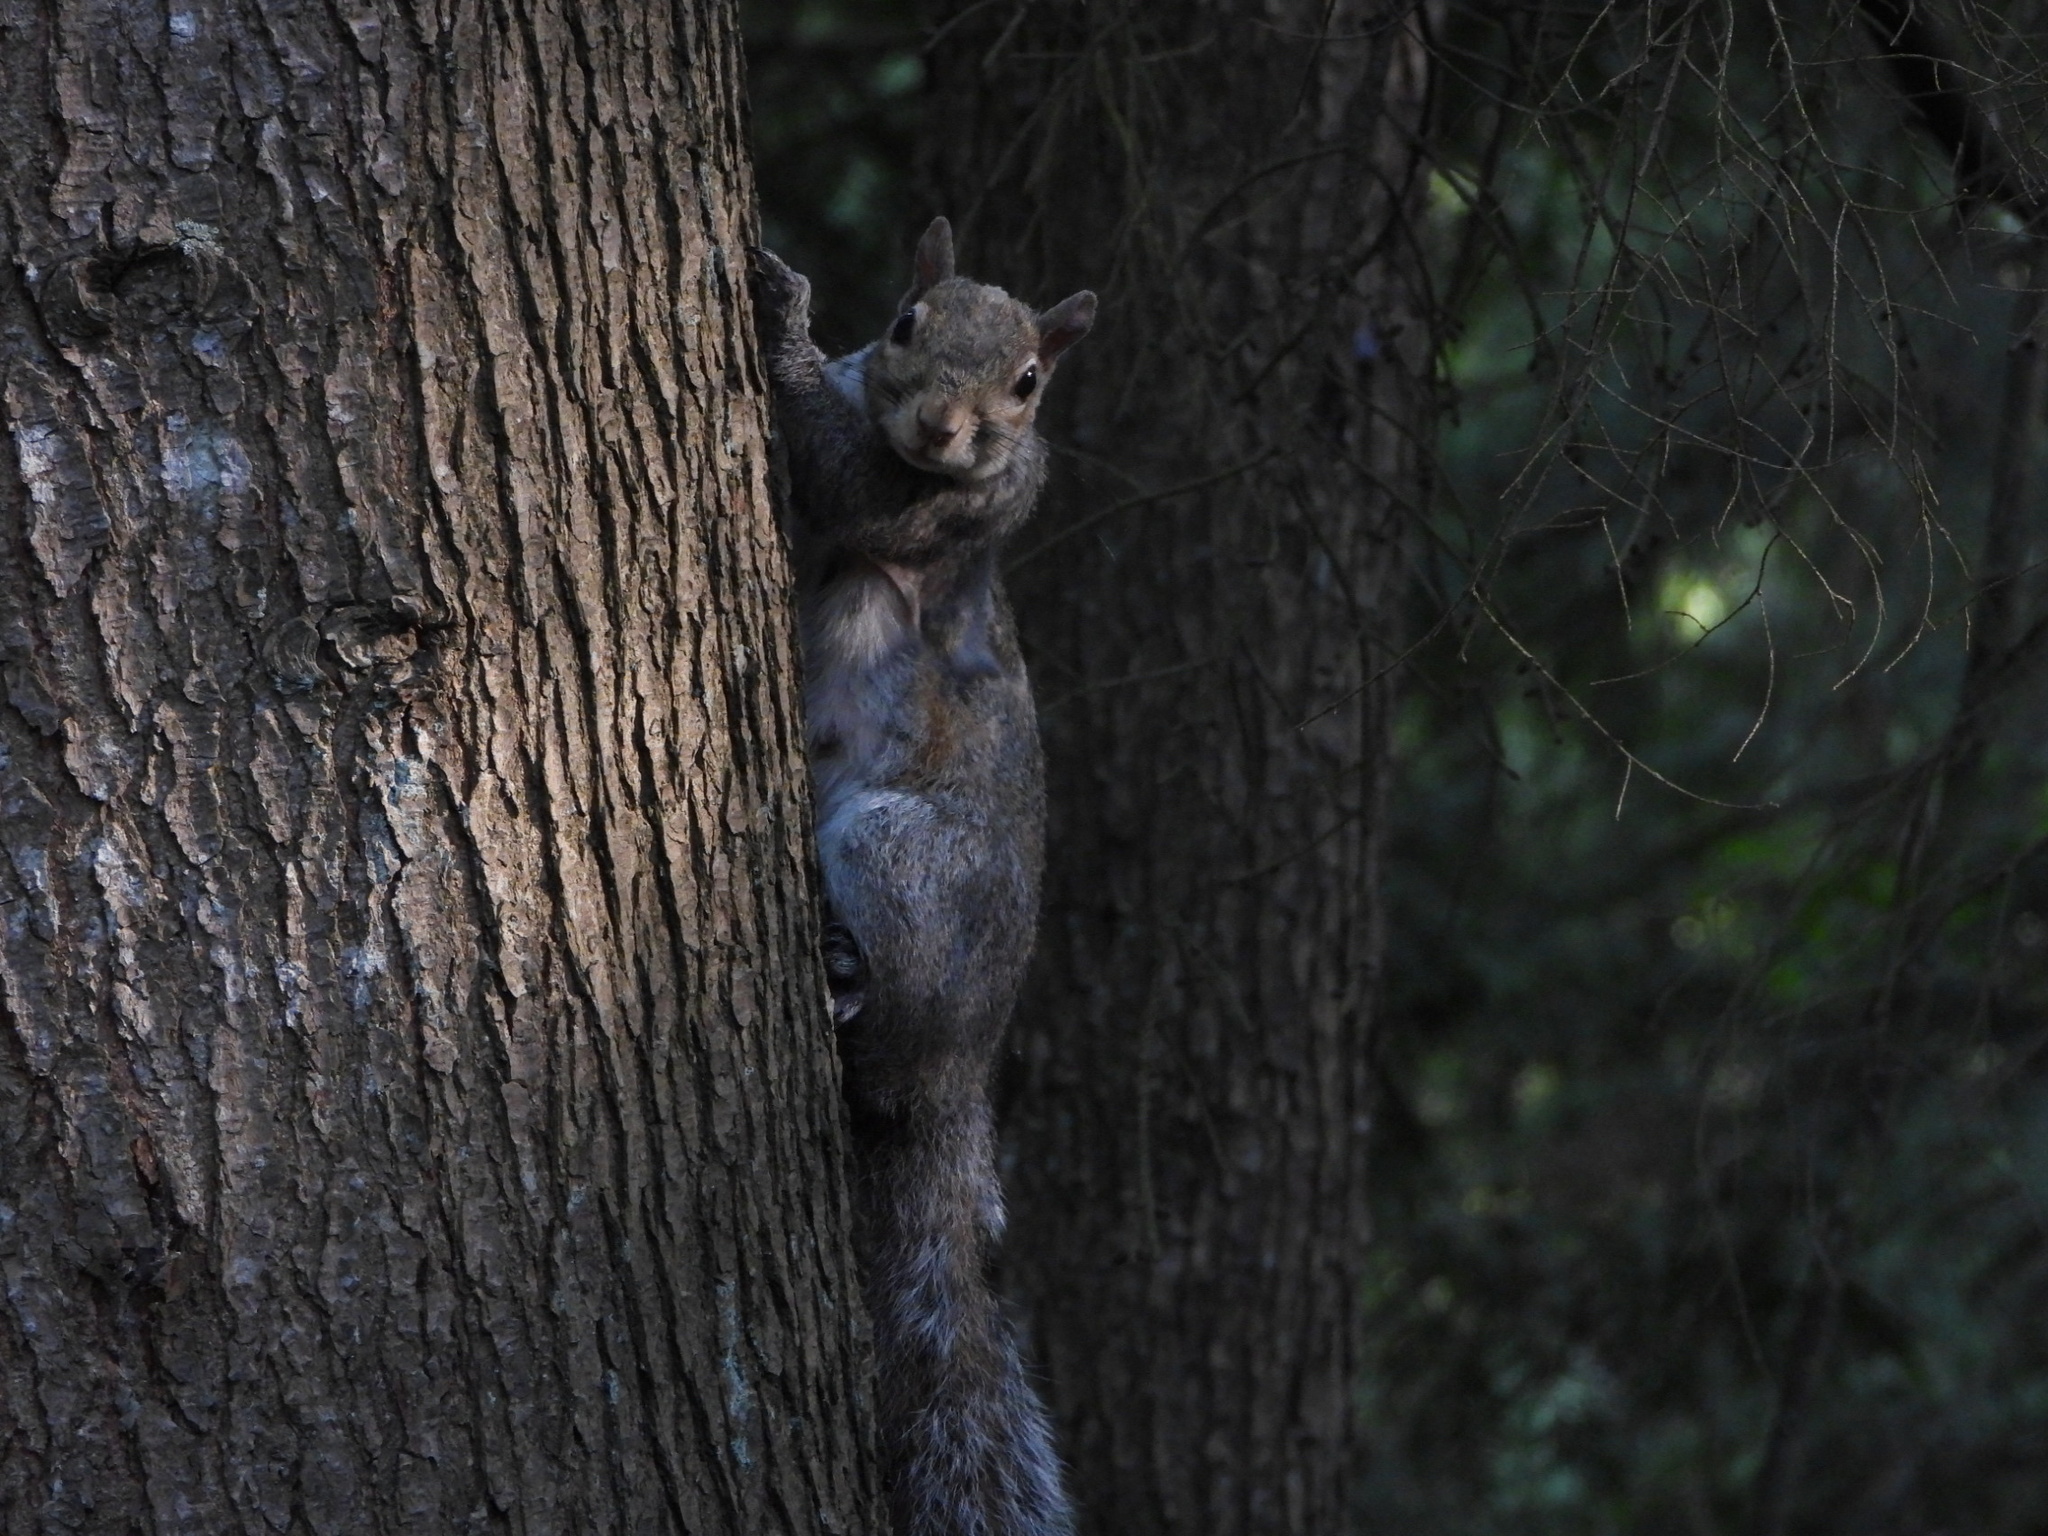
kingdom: Animalia
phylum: Chordata
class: Mammalia
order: Rodentia
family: Sciuridae
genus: Sciurus
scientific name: Sciurus carolinensis
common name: Eastern gray squirrel
